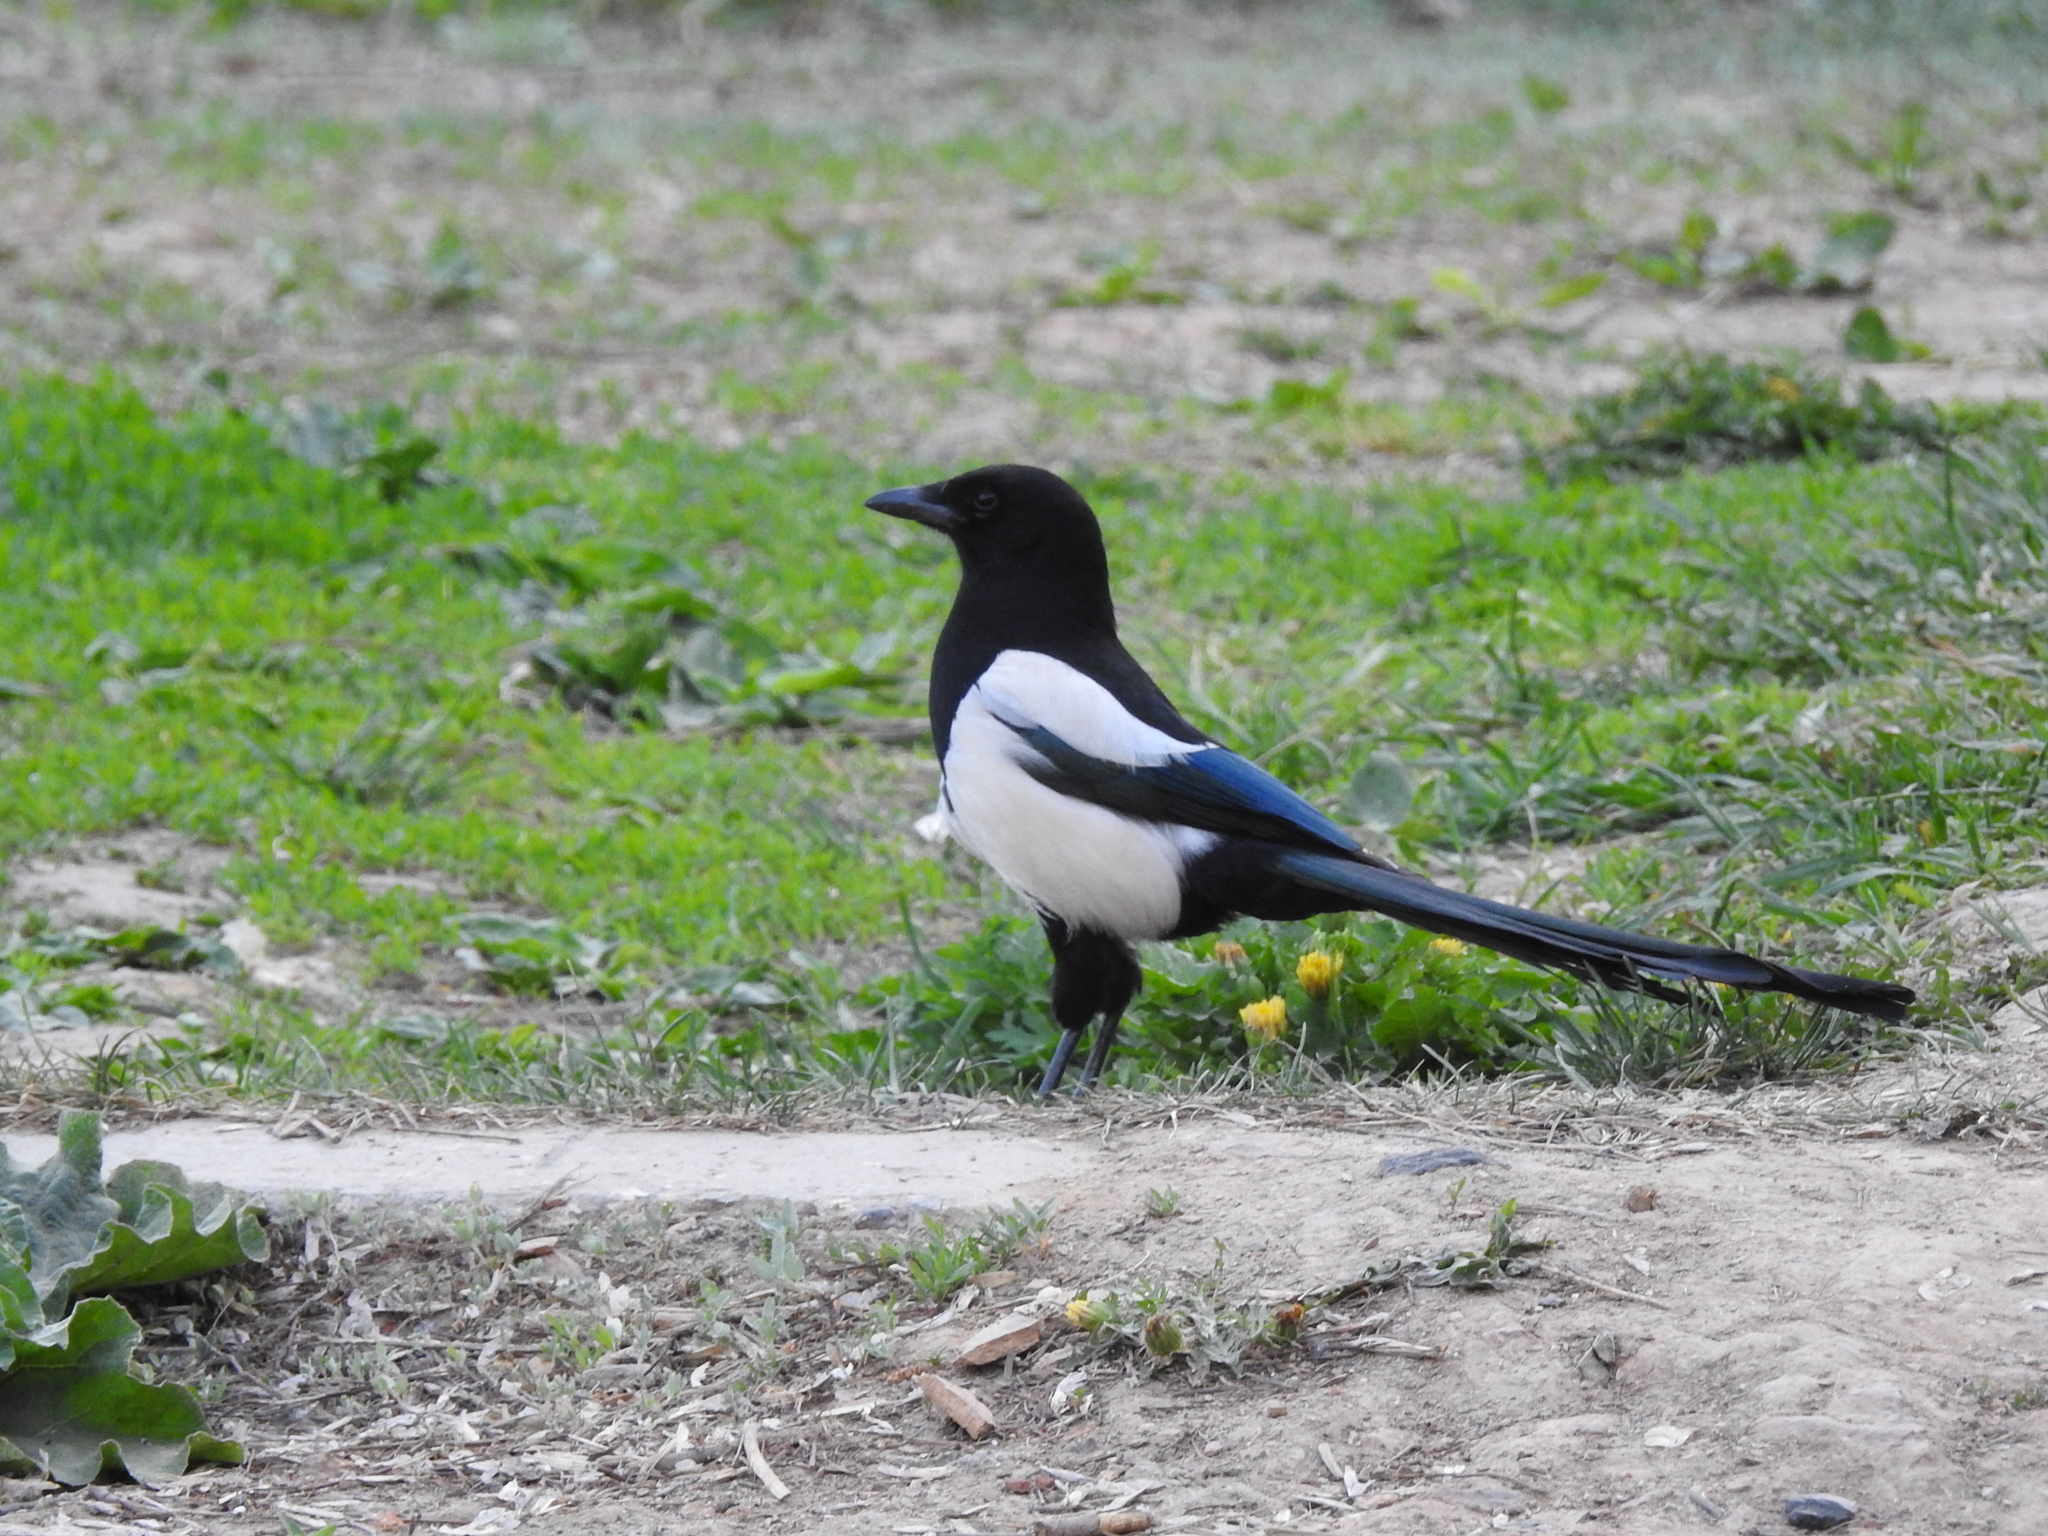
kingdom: Animalia
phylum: Chordata
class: Aves
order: Passeriformes
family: Corvidae
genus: Pica
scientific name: Pica pica
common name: Eurasian magpie
